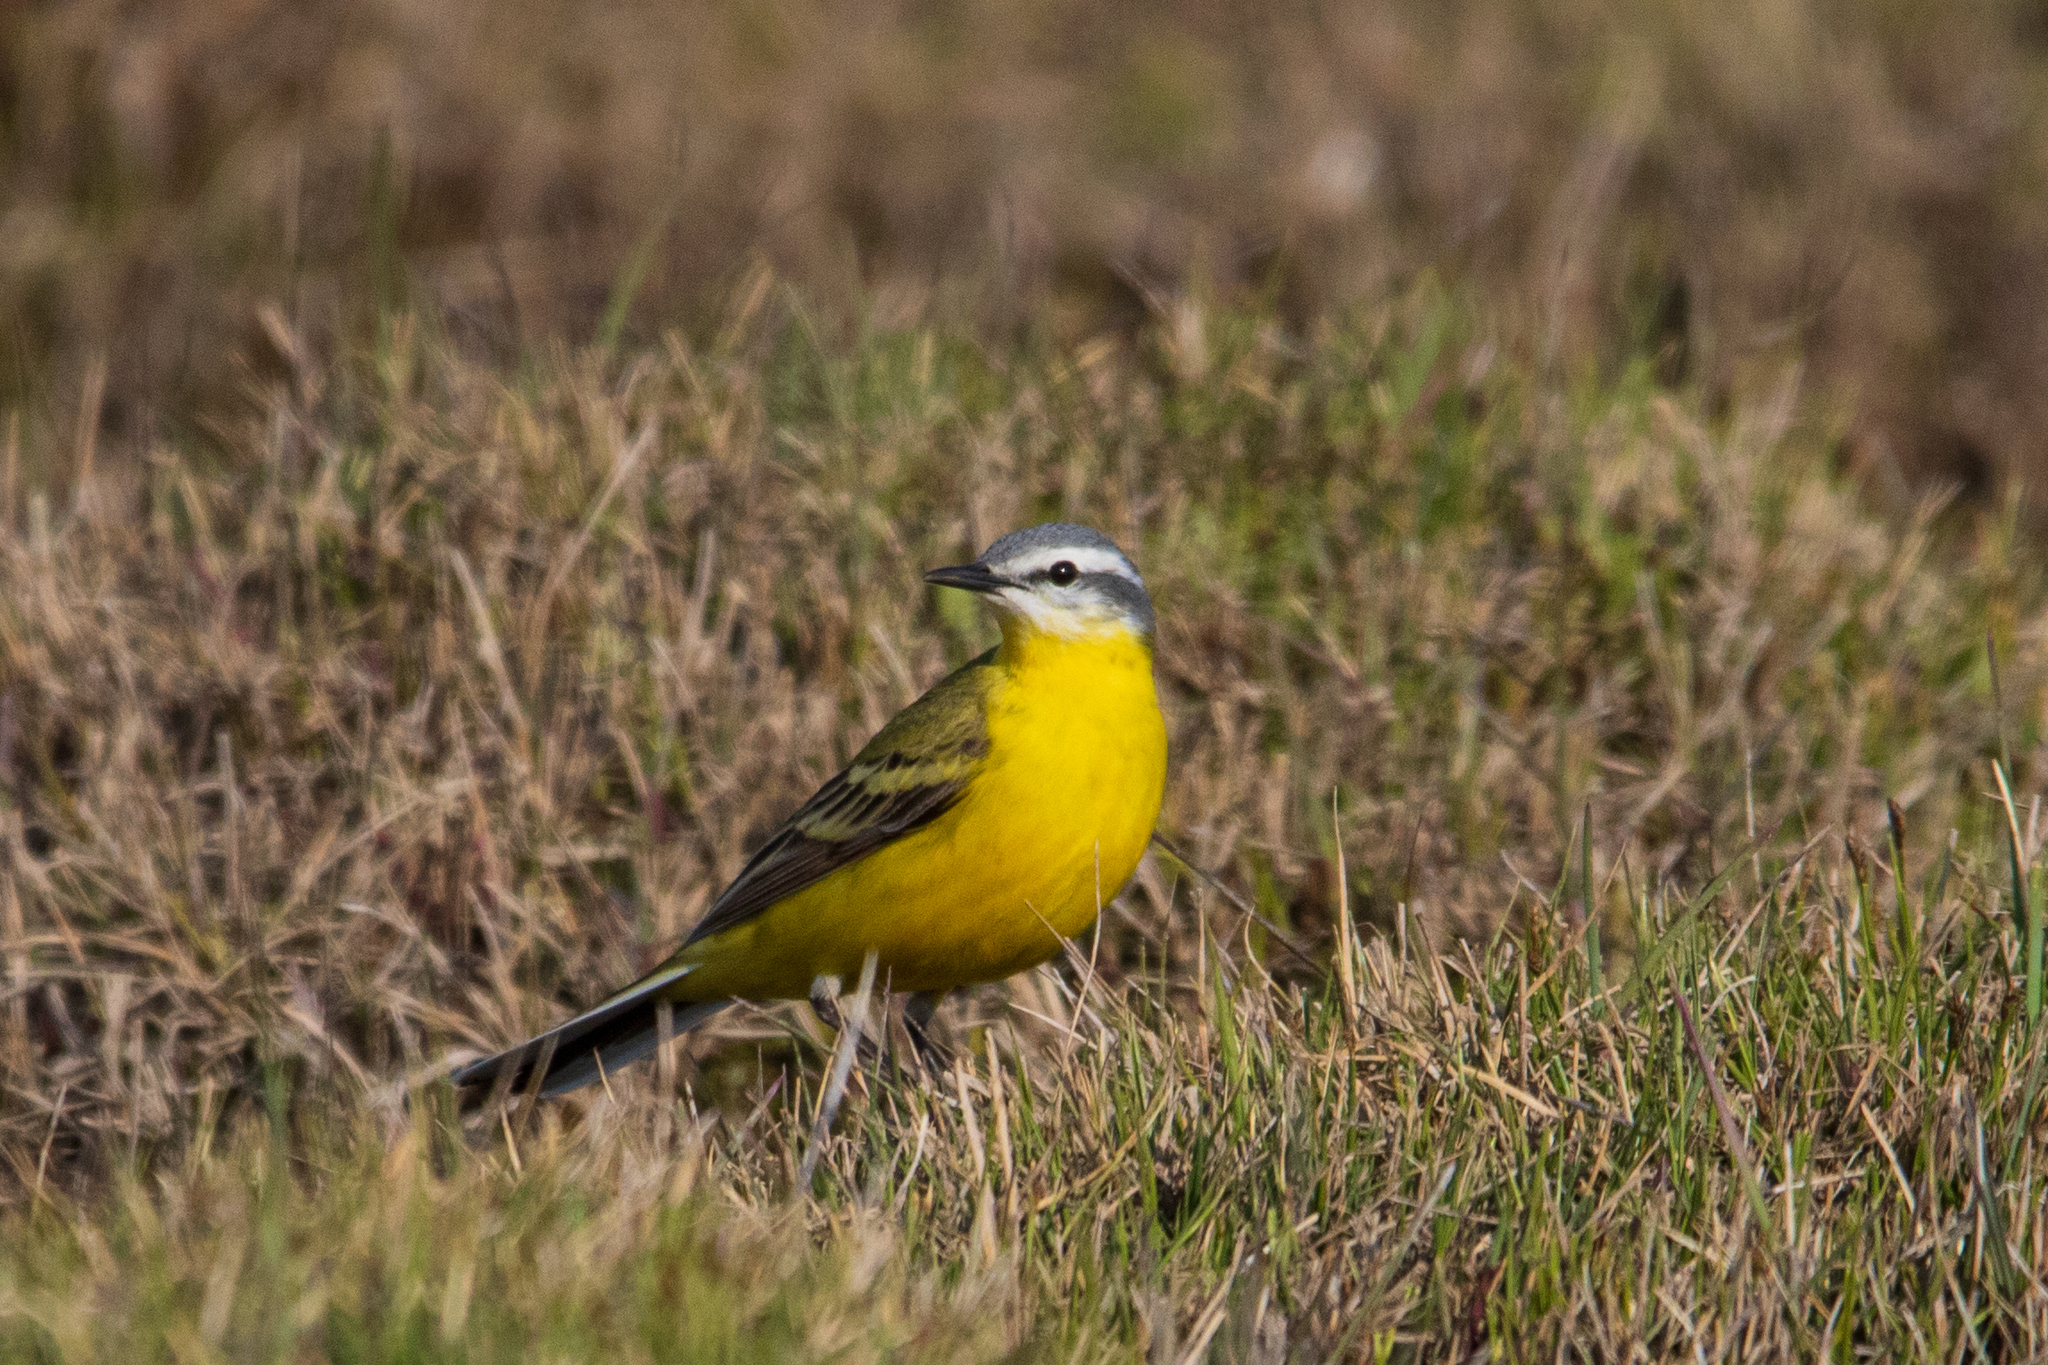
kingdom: Animalia
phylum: Chordata
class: Aves
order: Passeriformes
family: Motacillidae
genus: Motacilla
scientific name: Motacilla flava
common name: Western yellow wagtail
